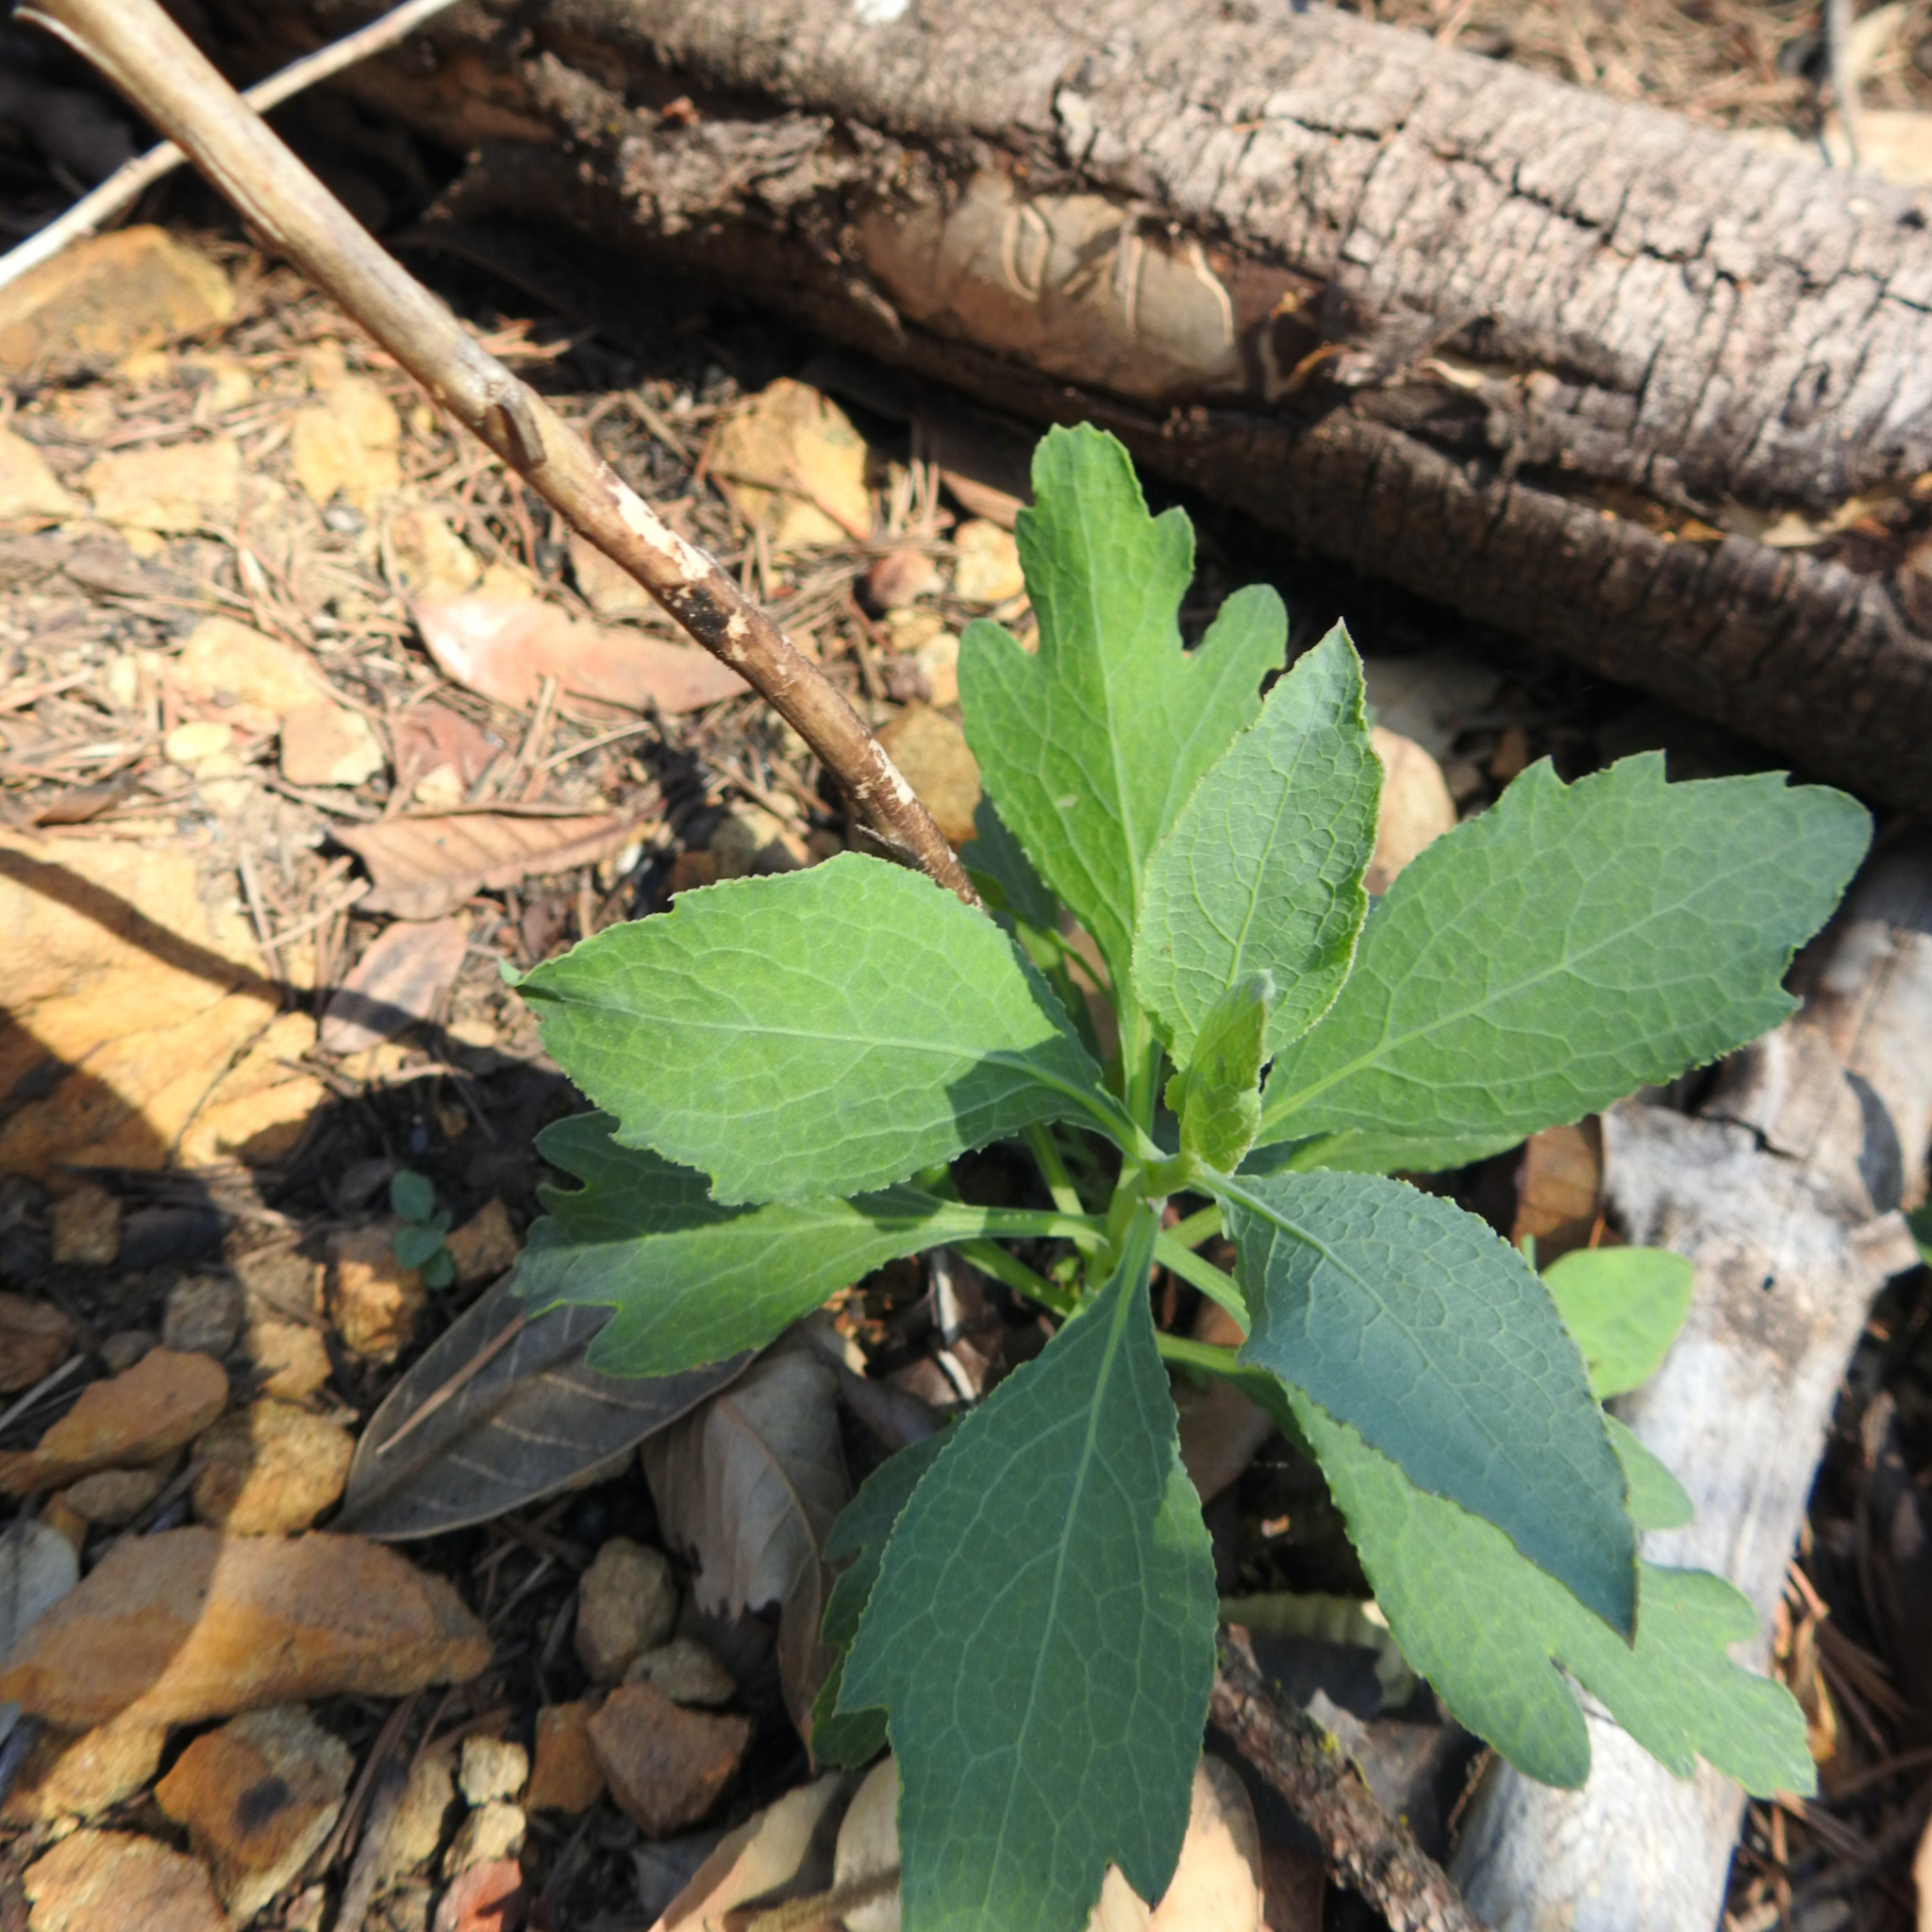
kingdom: Plantae
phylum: Tracheophyta
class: Magnoliopsida
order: Ranunculales
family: Papaveraceae
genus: Dendromecon
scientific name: Dendromecon rigida
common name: Tree poppy
